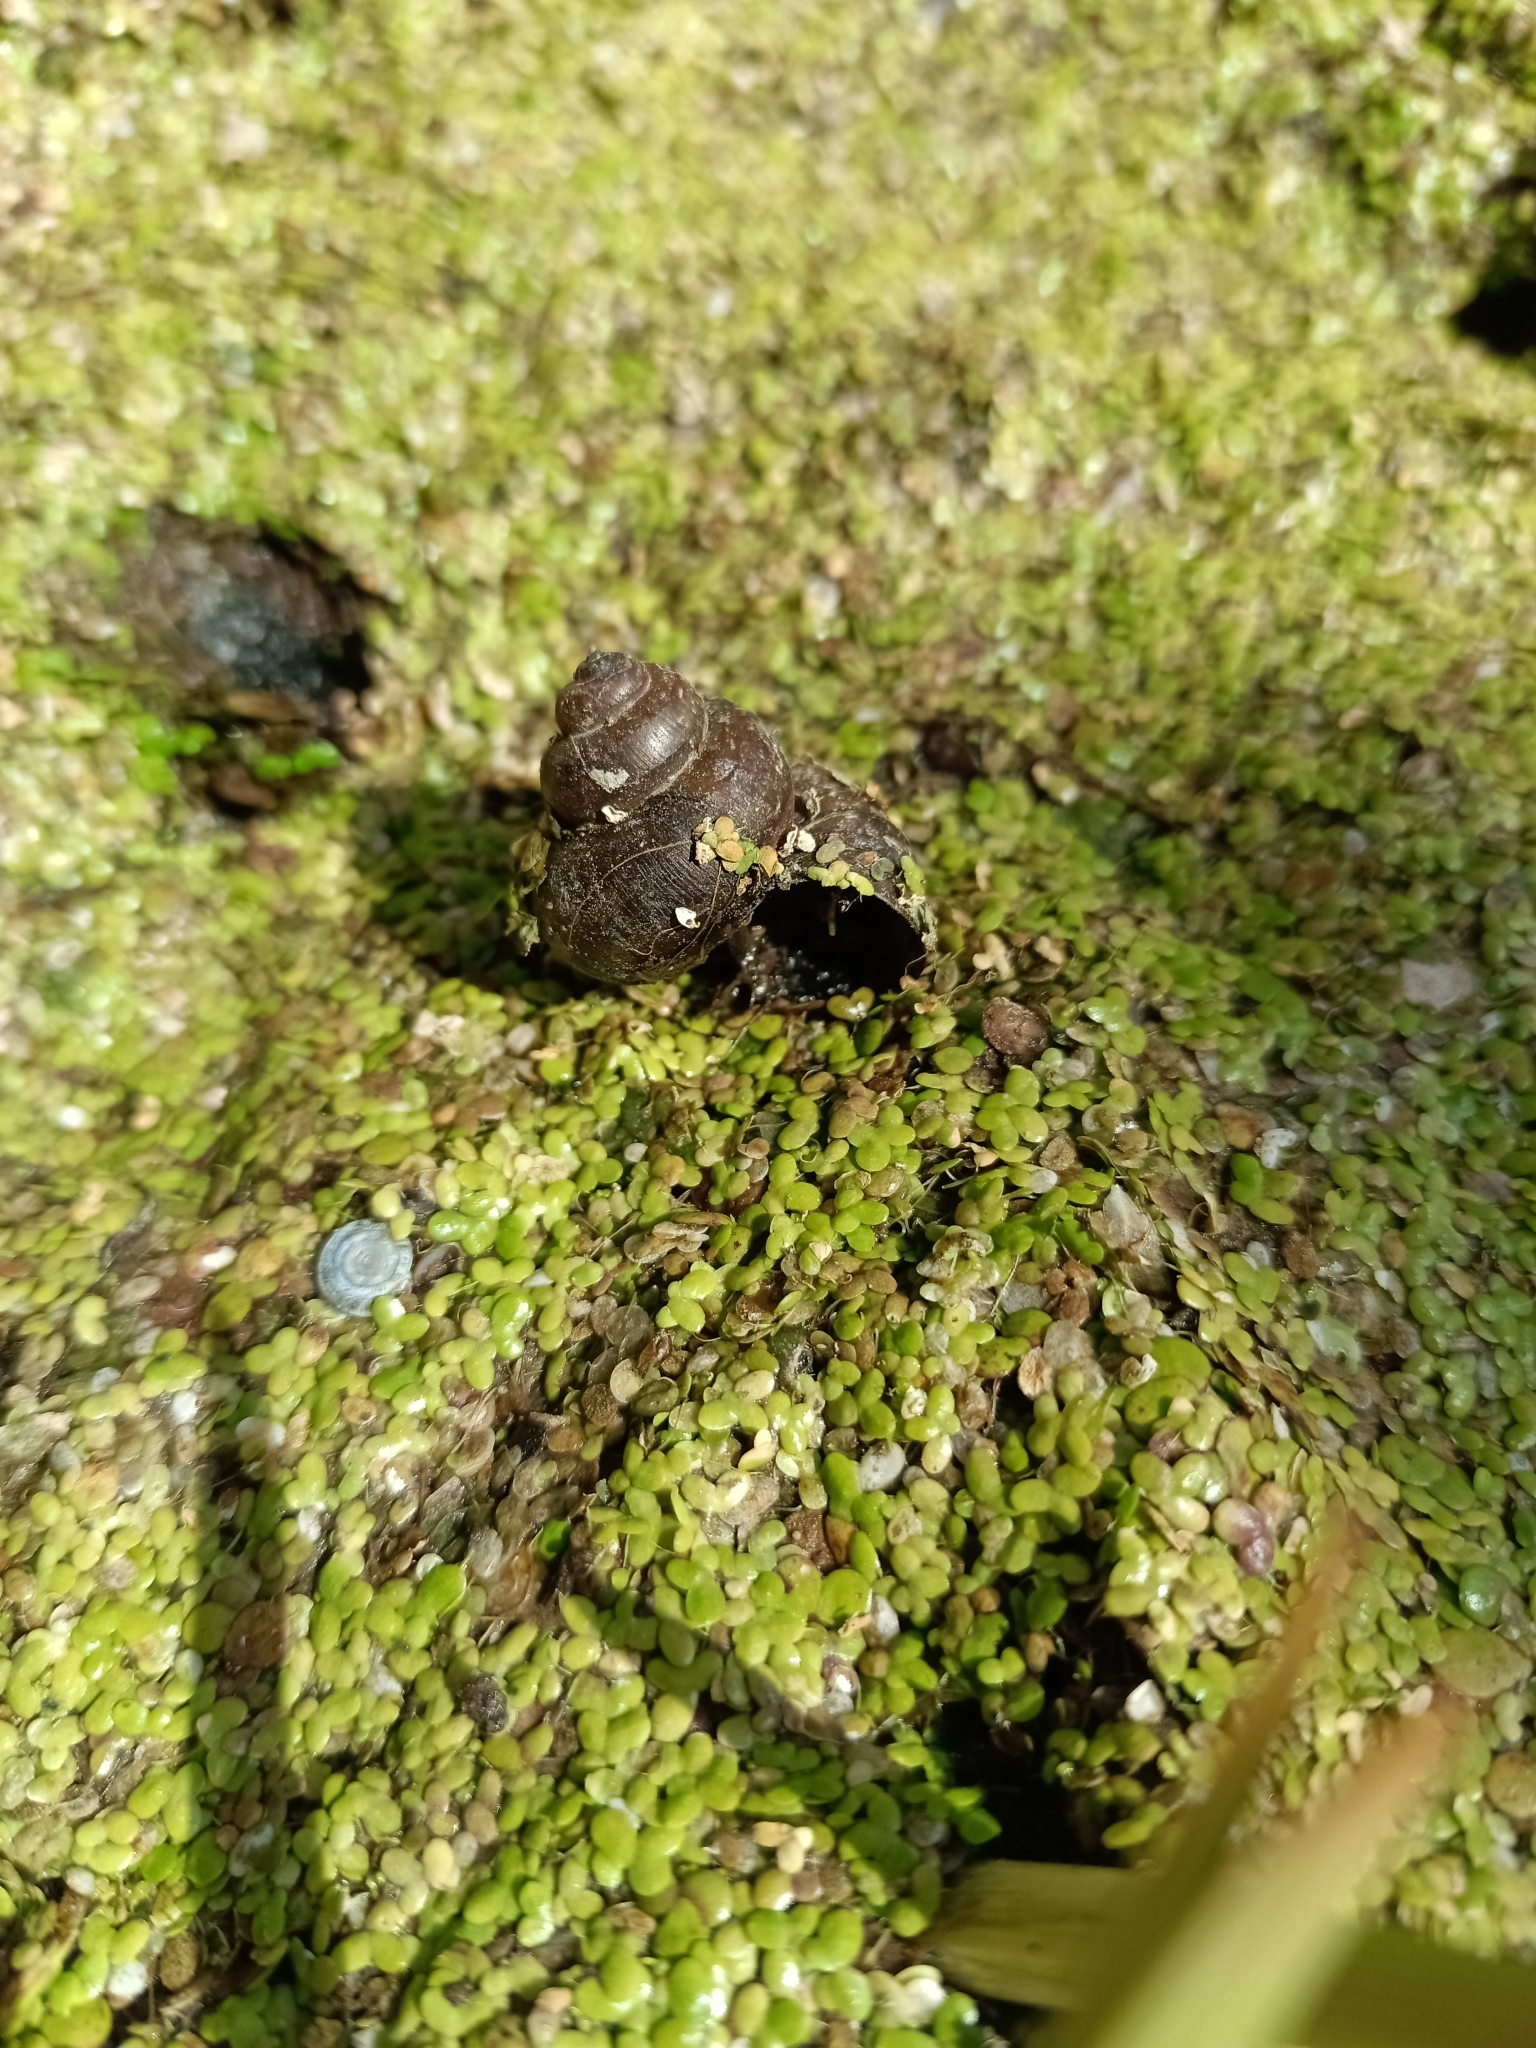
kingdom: Animalia
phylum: Mollusca
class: Gastropoda
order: Architaenioglossa
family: Viviparidae
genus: Viviparus
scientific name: Viviparus contectus
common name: Lister's river snail
